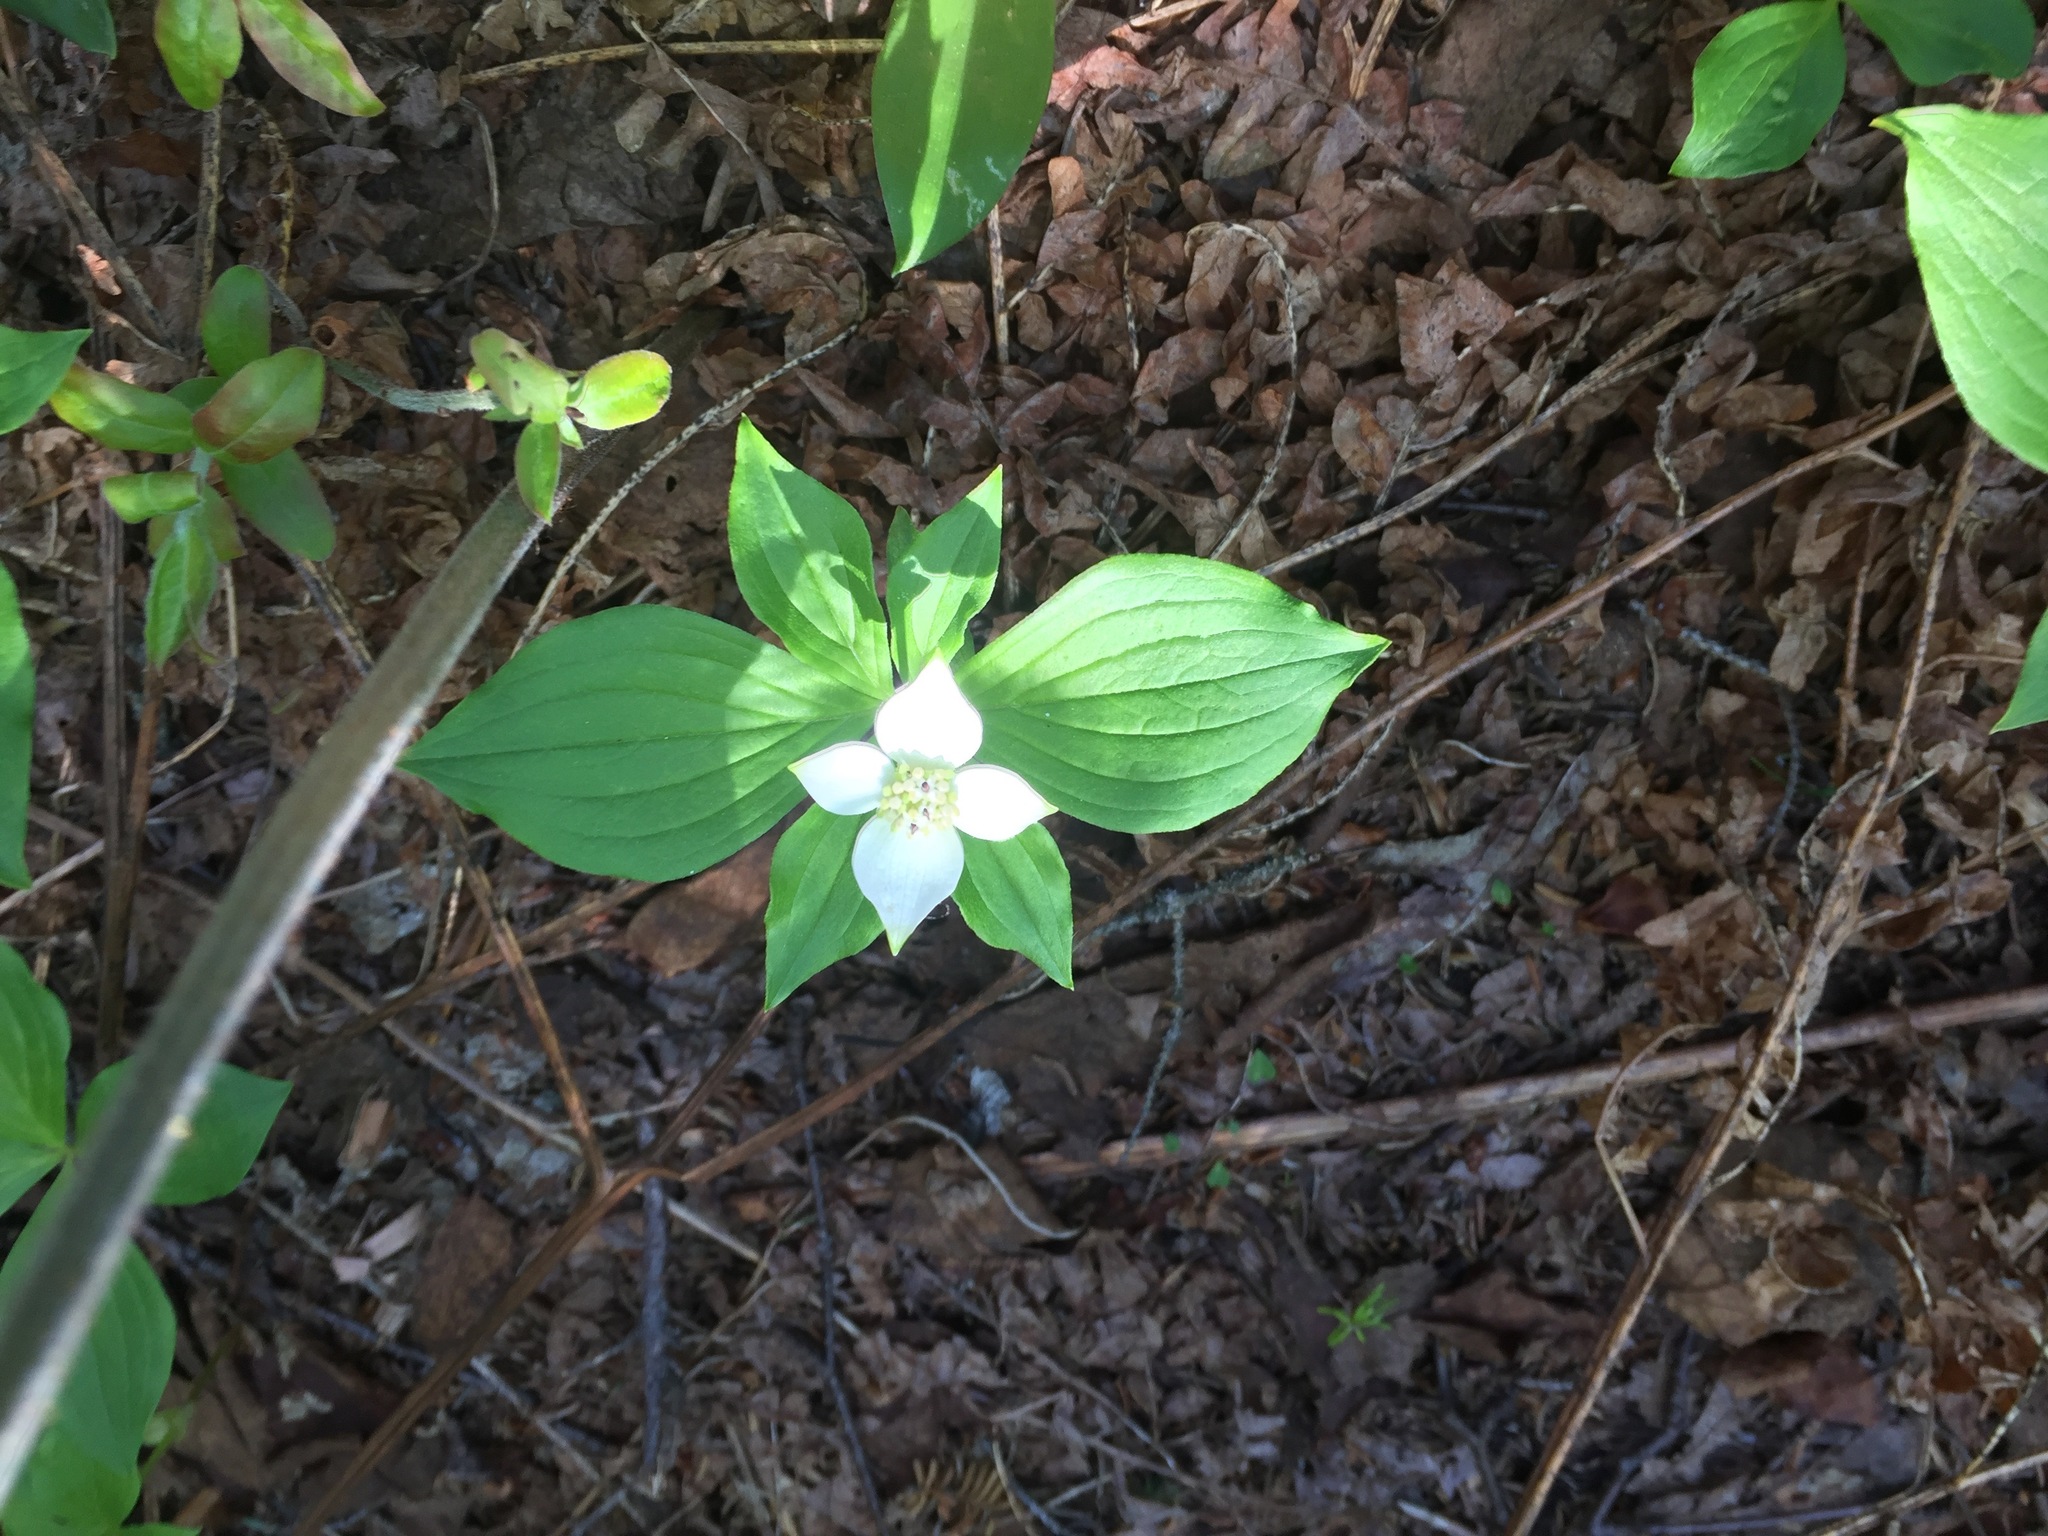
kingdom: Plantae
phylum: Tracheophyta
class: Magnoliopsida
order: Cornales
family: Cornaceae
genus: Cornus
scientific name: Cornus canadensis
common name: Creeping dogwood
